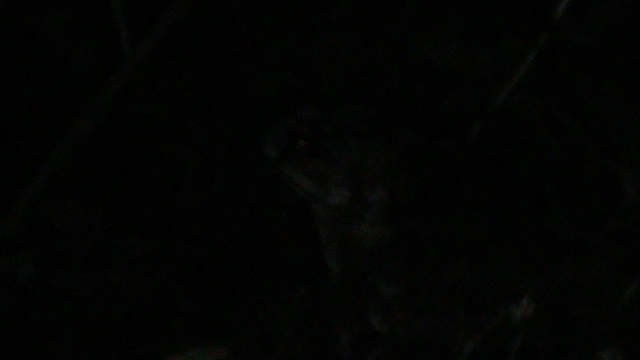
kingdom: Animalia
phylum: Chordata
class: Amphibia
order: Anura
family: Bufonidae
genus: Duttaphrynus
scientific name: Duttaphrynus melanostictus
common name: Common sunda toad
